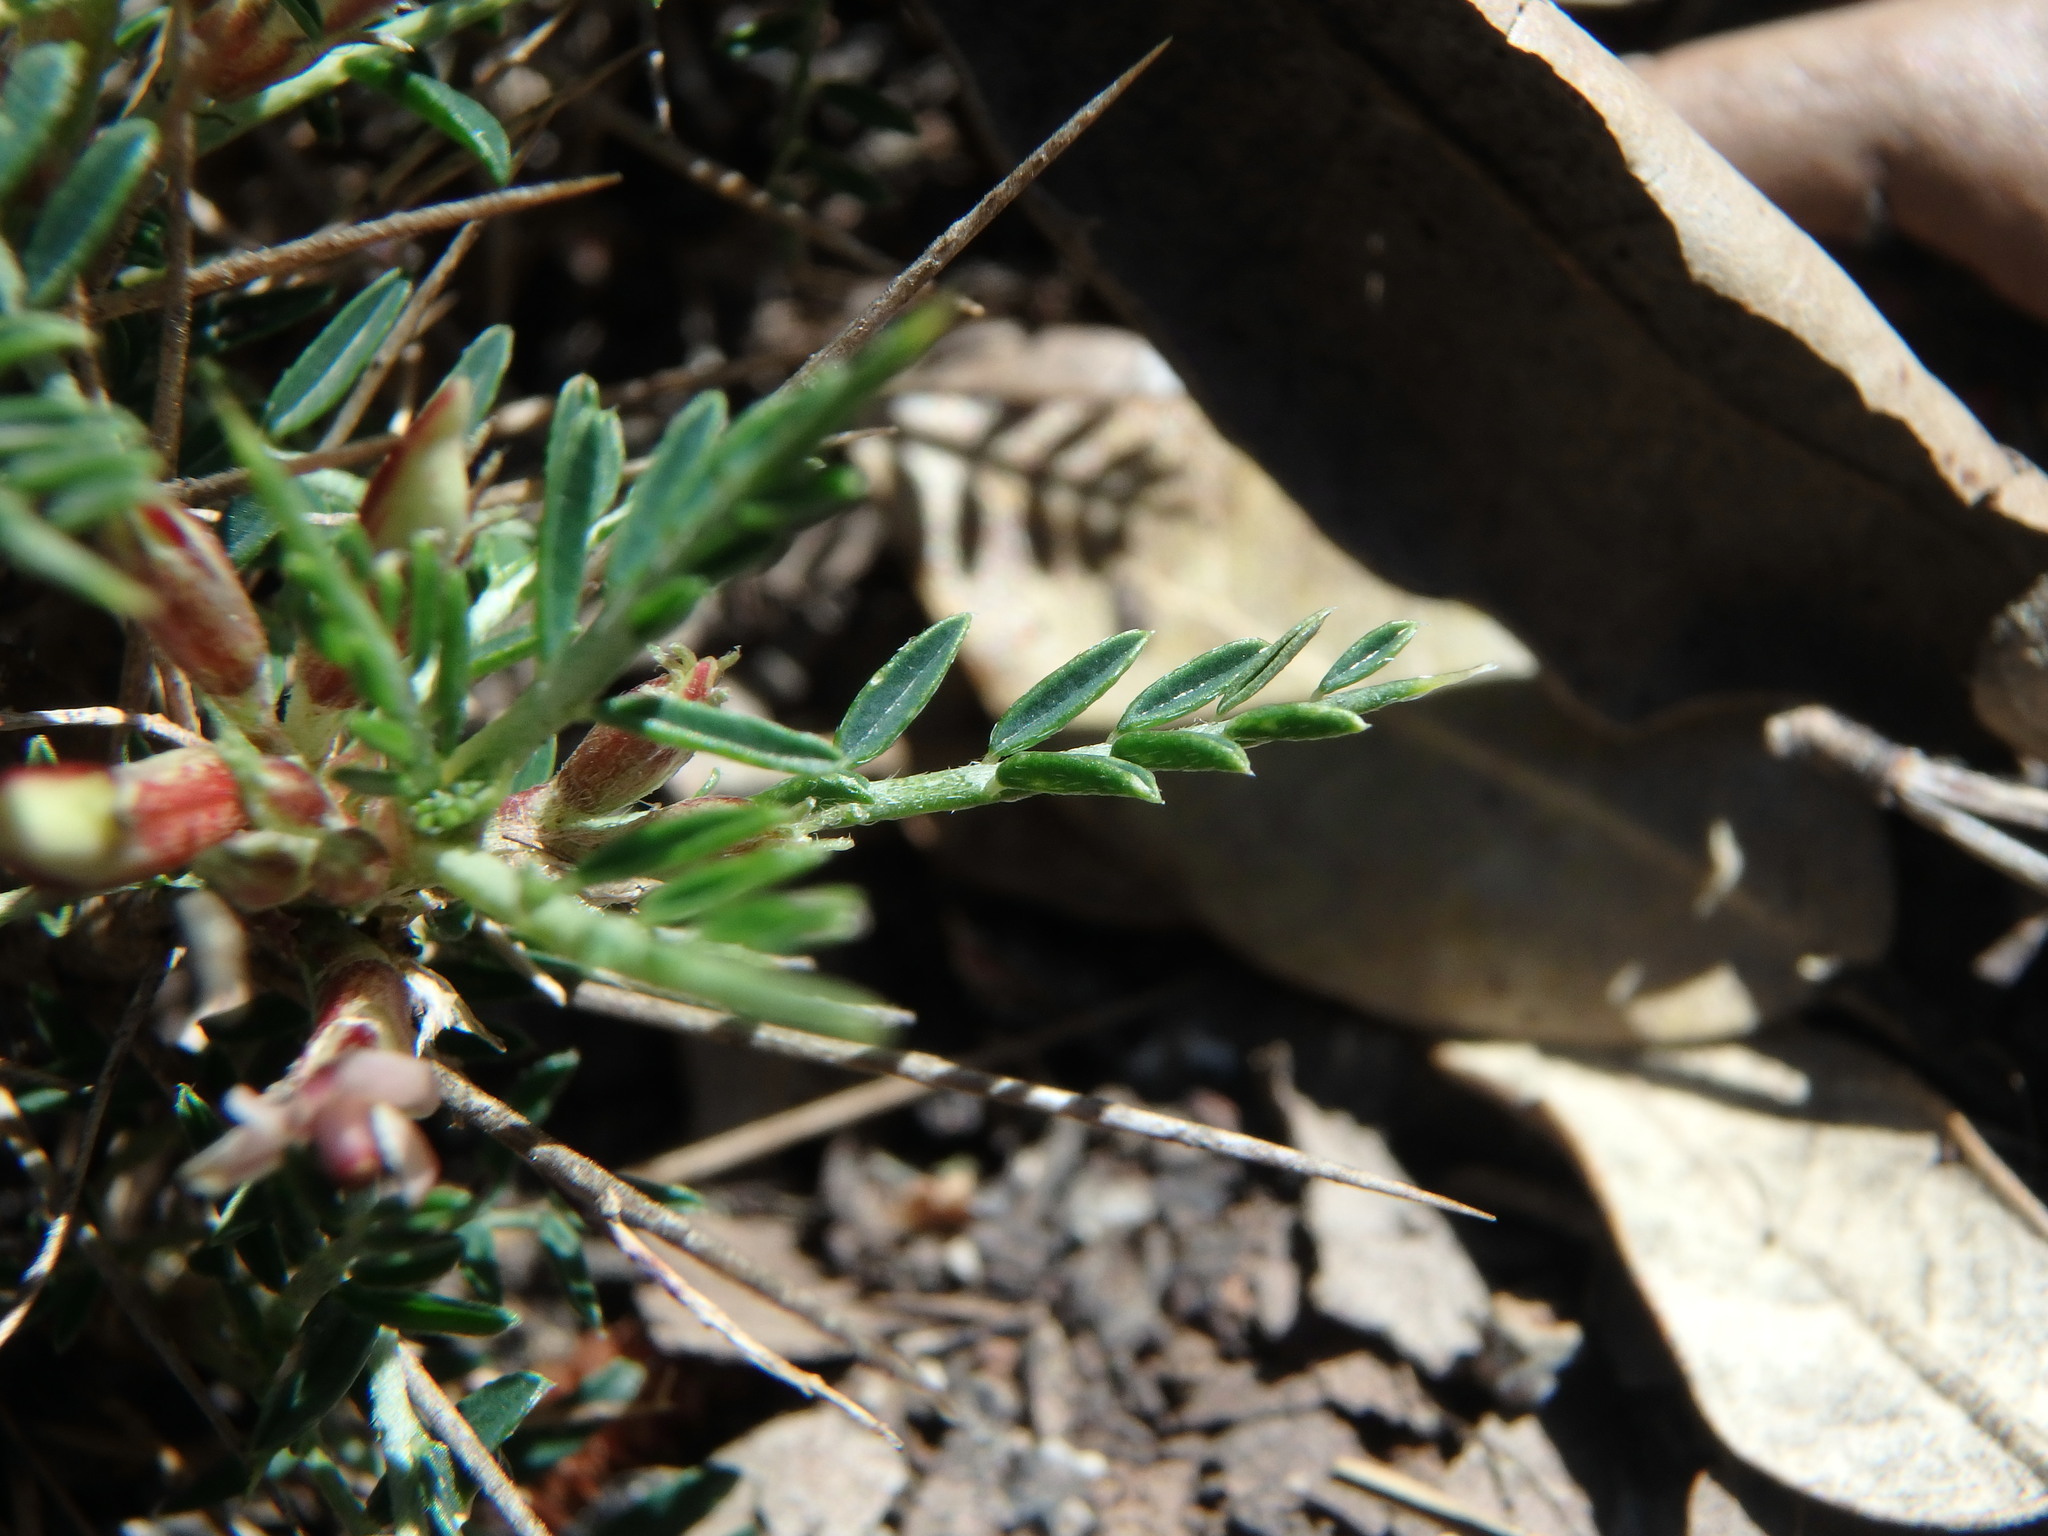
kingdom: Plantae
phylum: Tracheophyta
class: Magnoliopsida
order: Fabales
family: Fabaceae
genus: Astragalus
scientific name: Astragalus balearicus
